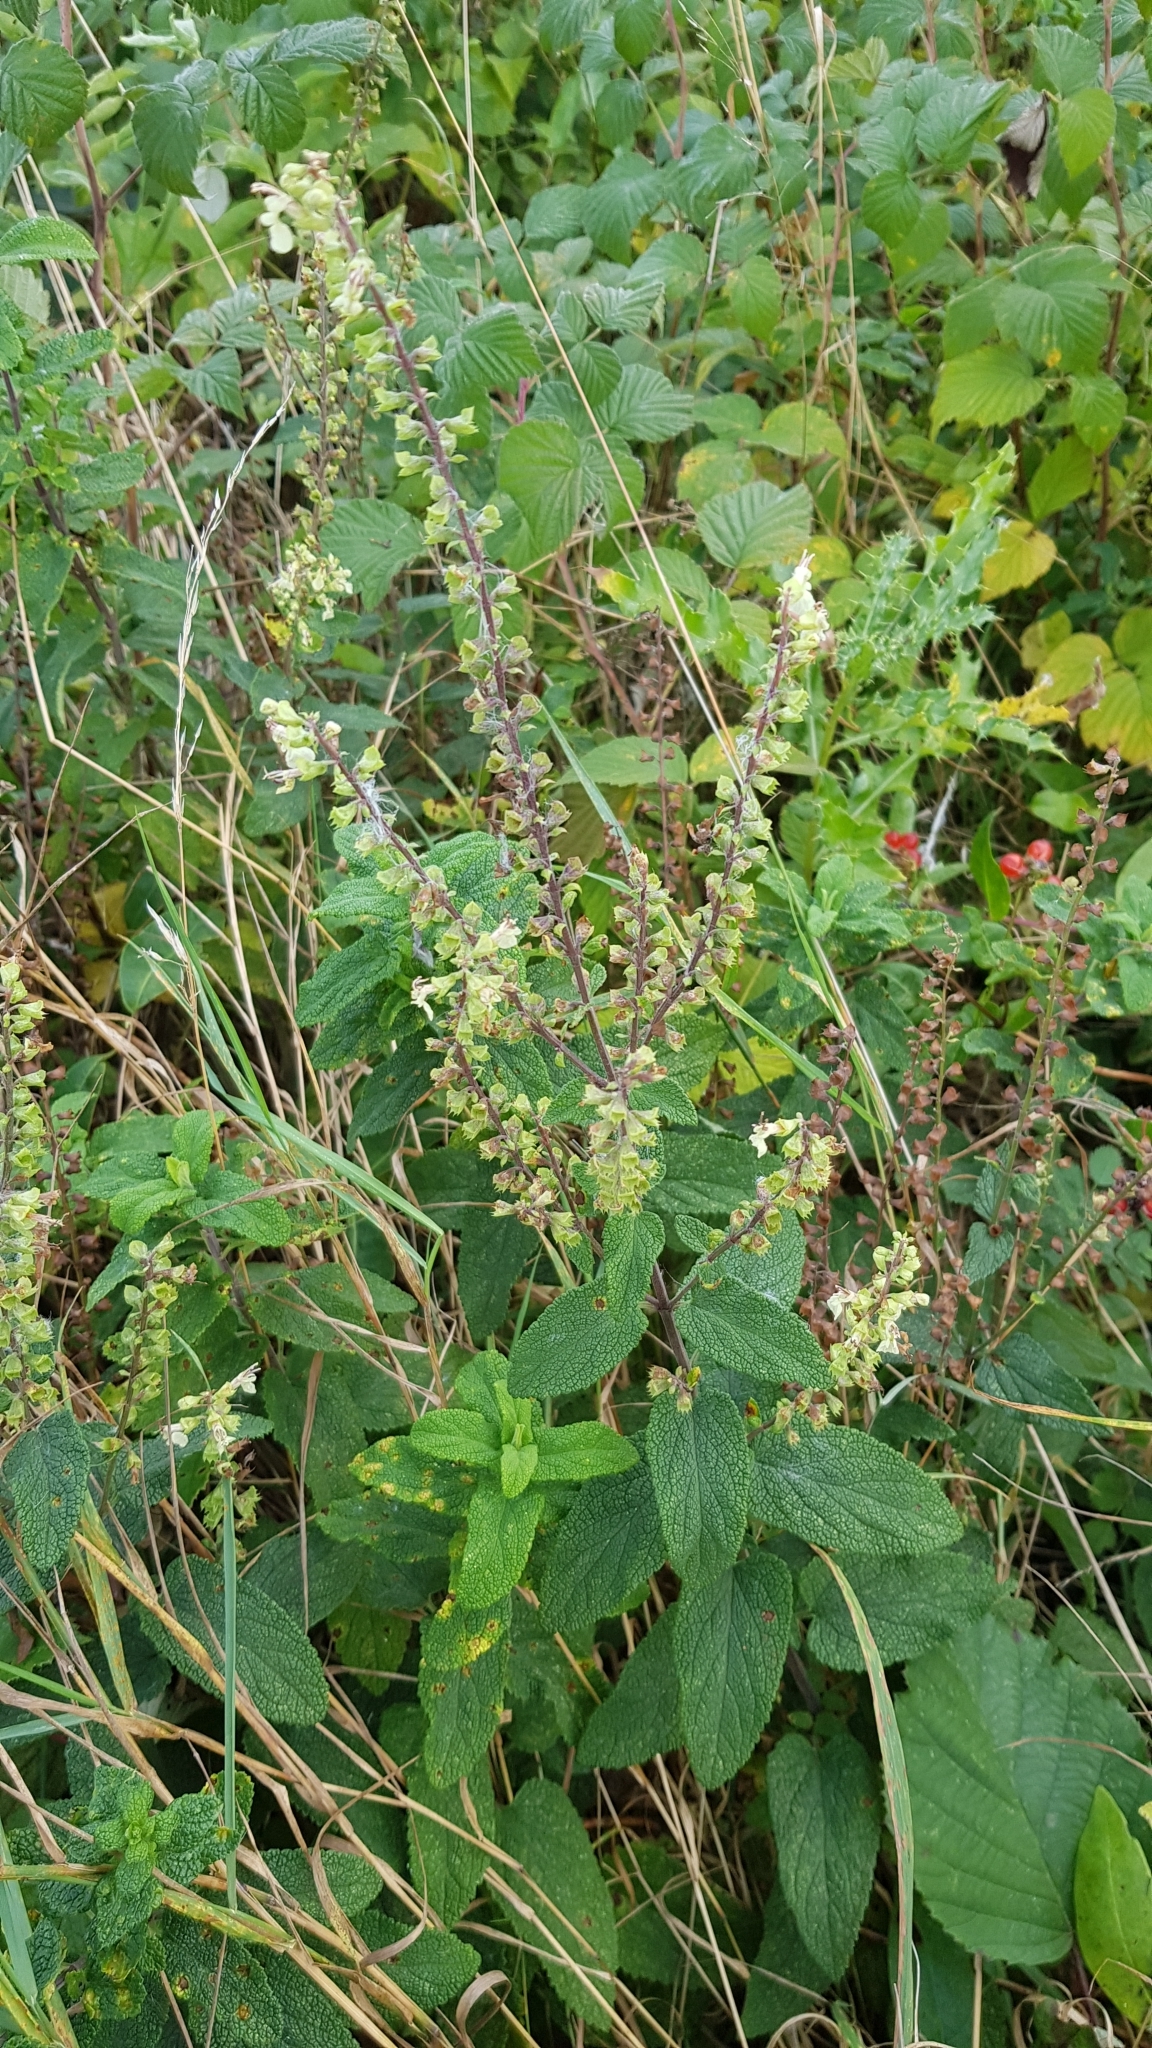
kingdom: Plantae
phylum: Tracheophyta
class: Magnoliopsida
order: Lamiales
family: Lamiaceae
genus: Teucrium
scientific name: Teucrium scorodonia
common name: Woodland germander
